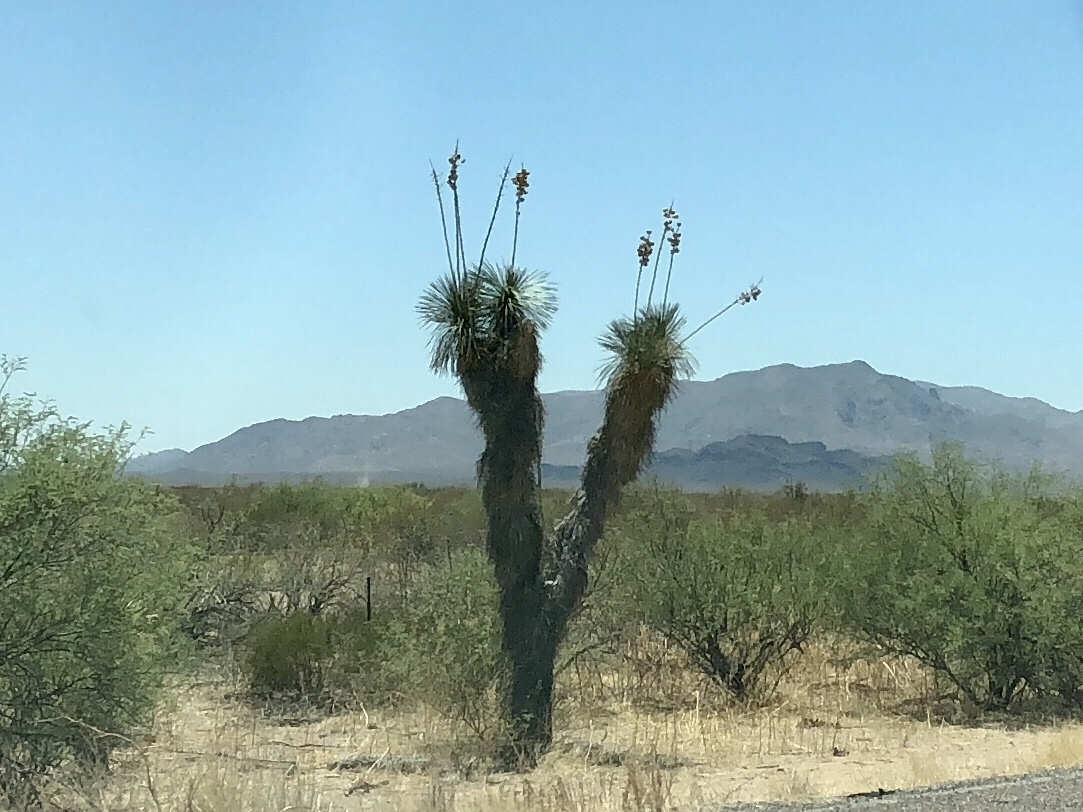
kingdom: Plantae
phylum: Tracheophyta
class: Liliopsida
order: Asparagales
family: Asparagaceae
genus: Yucca
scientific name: Yucca elata
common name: Palmella
